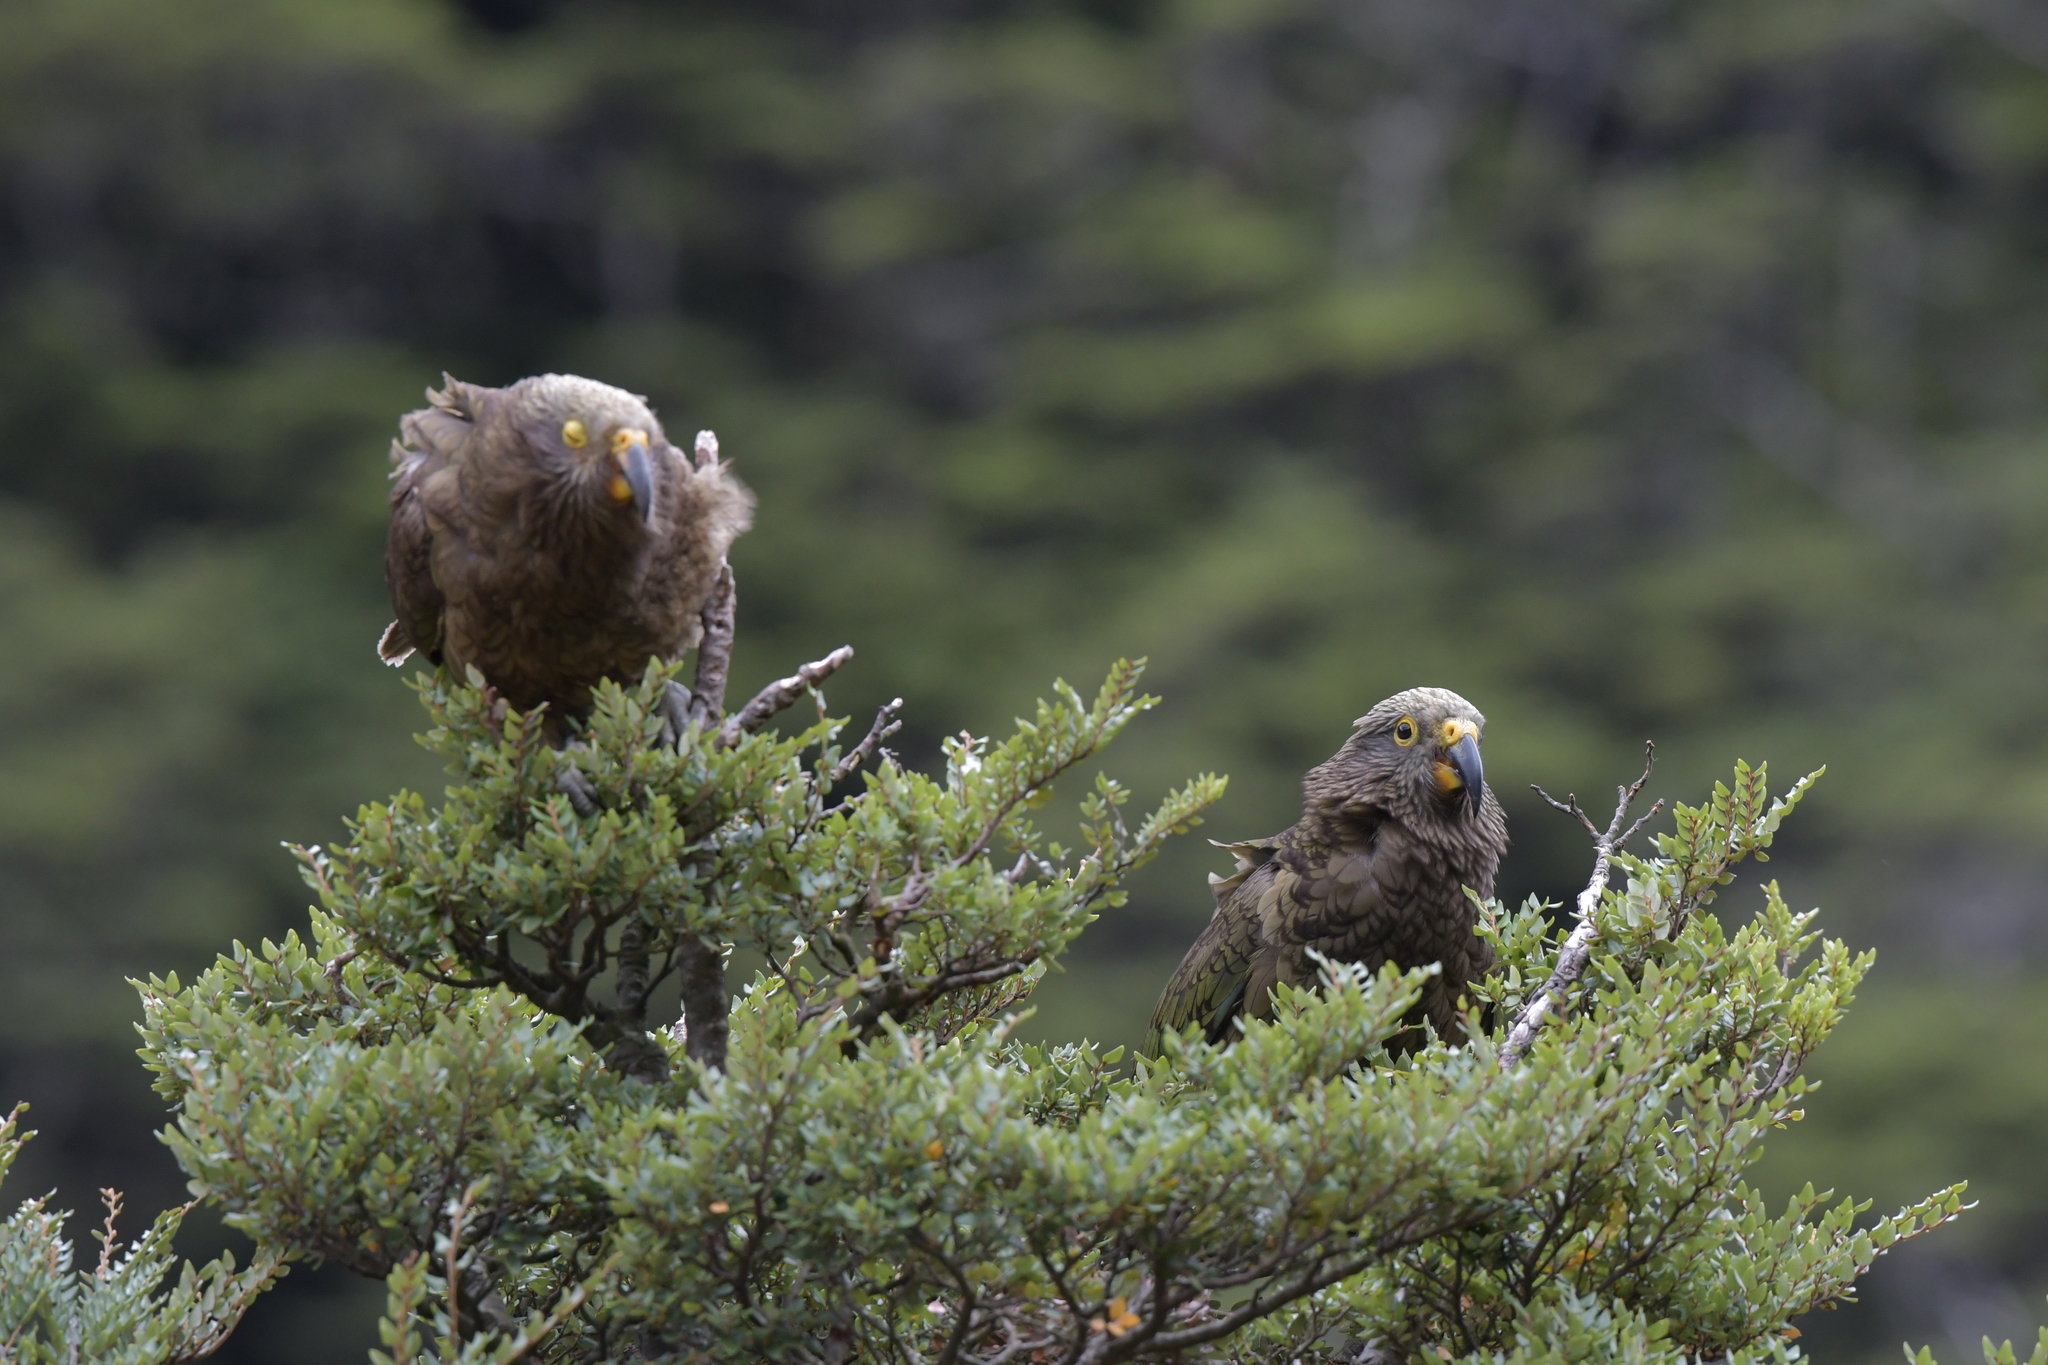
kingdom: Animalia
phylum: Chordata
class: Aves
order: Psittaciformes
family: Psittacidae
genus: Nestor
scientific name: Nestor notabilis
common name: Kea
